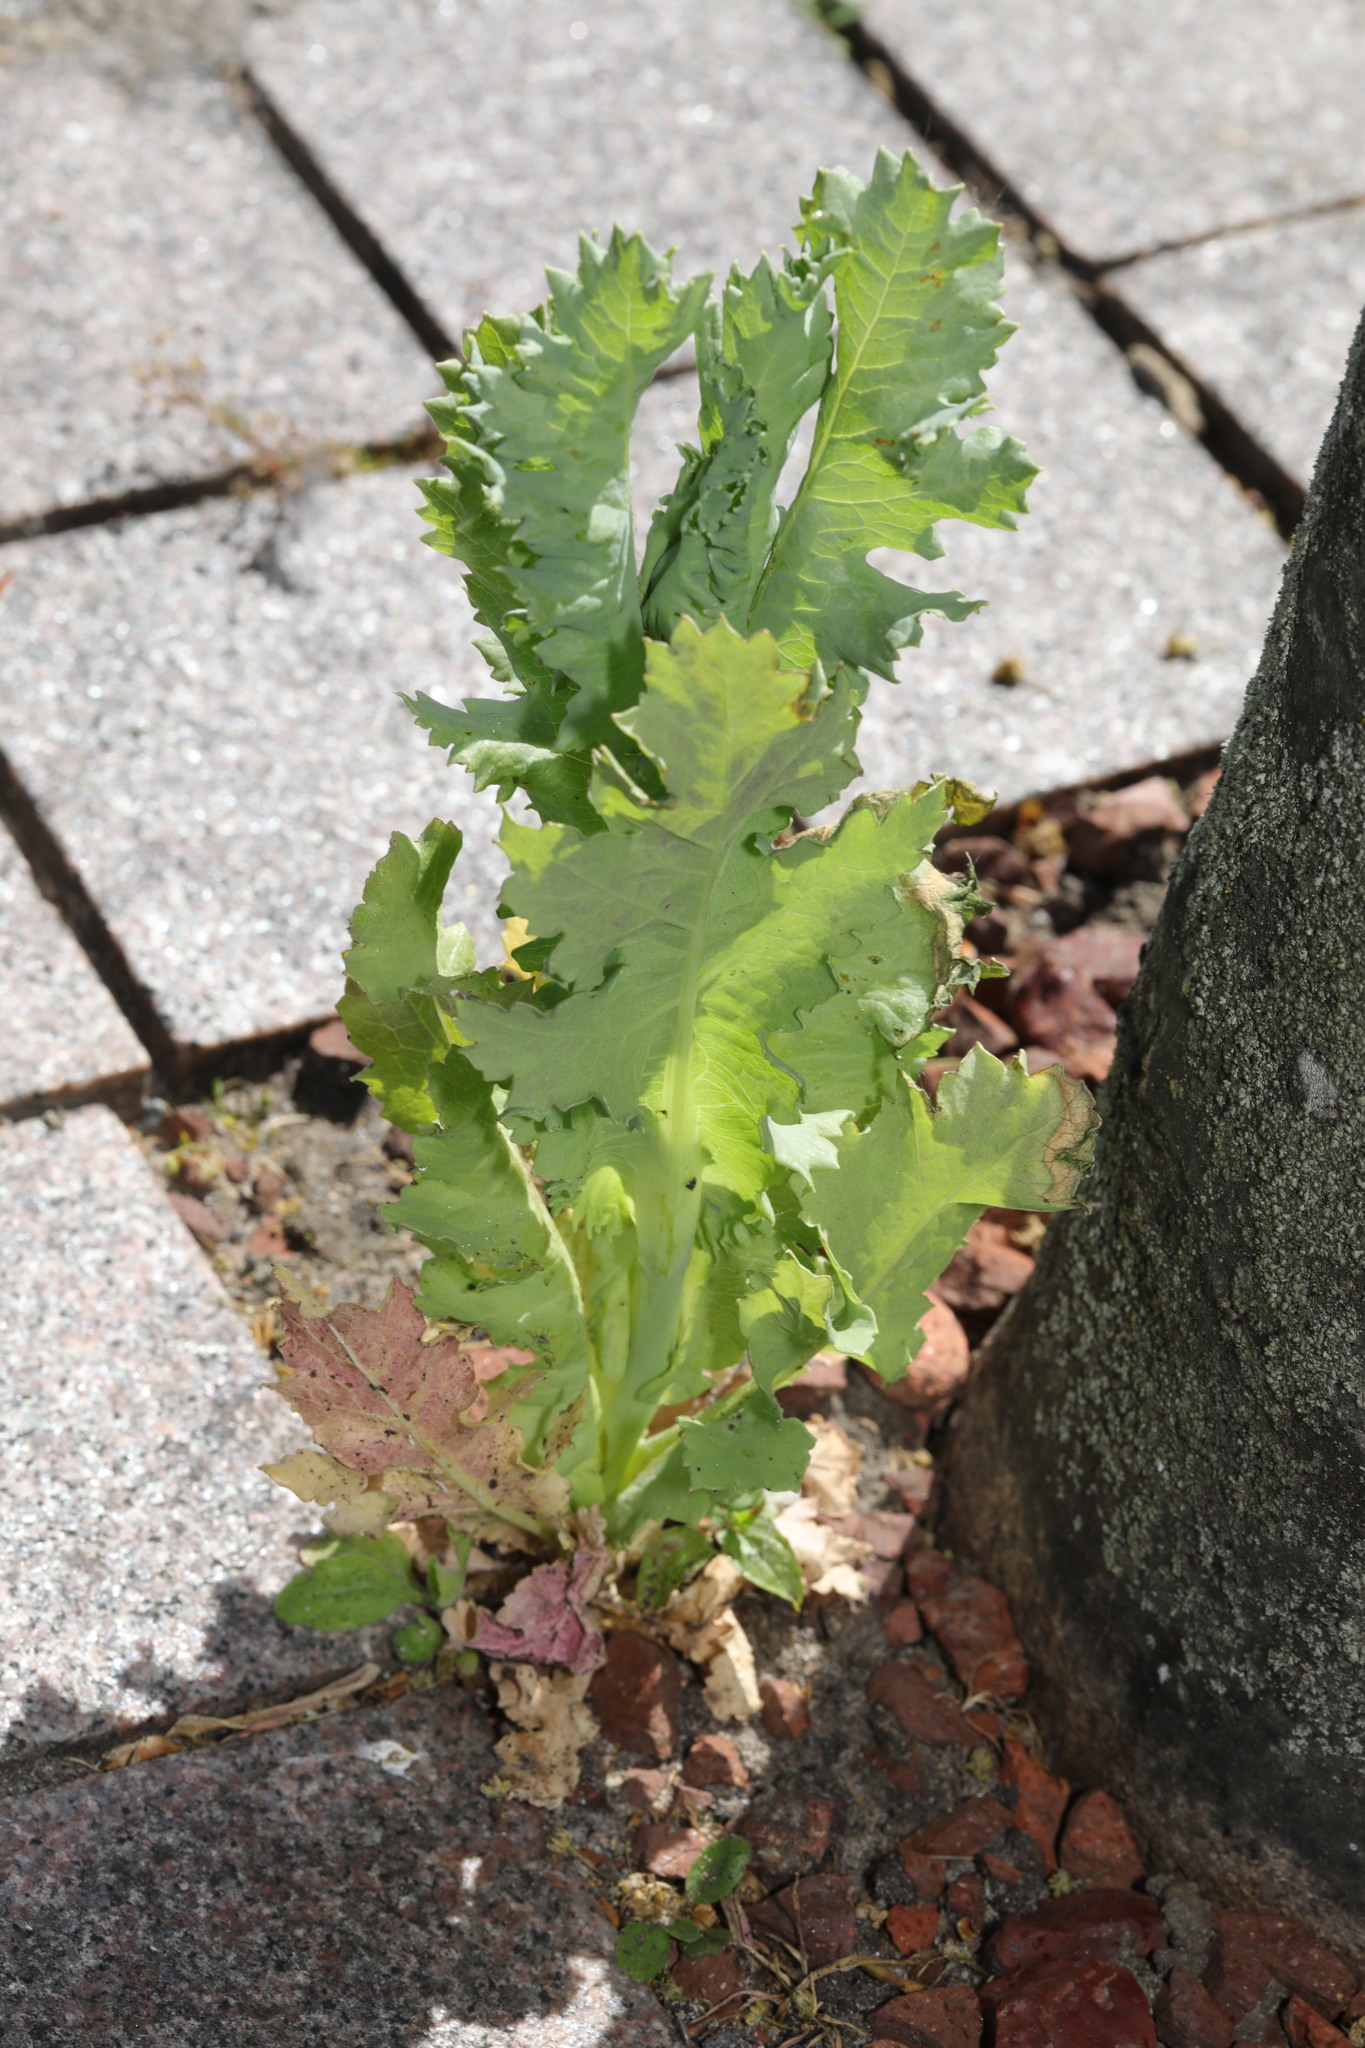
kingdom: Plantae
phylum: Tracheophyta
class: Magnoliopsida
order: Ranunculales
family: Papaveraceae
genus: Papaver
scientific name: Papaver somniferum
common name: Opium poppy
